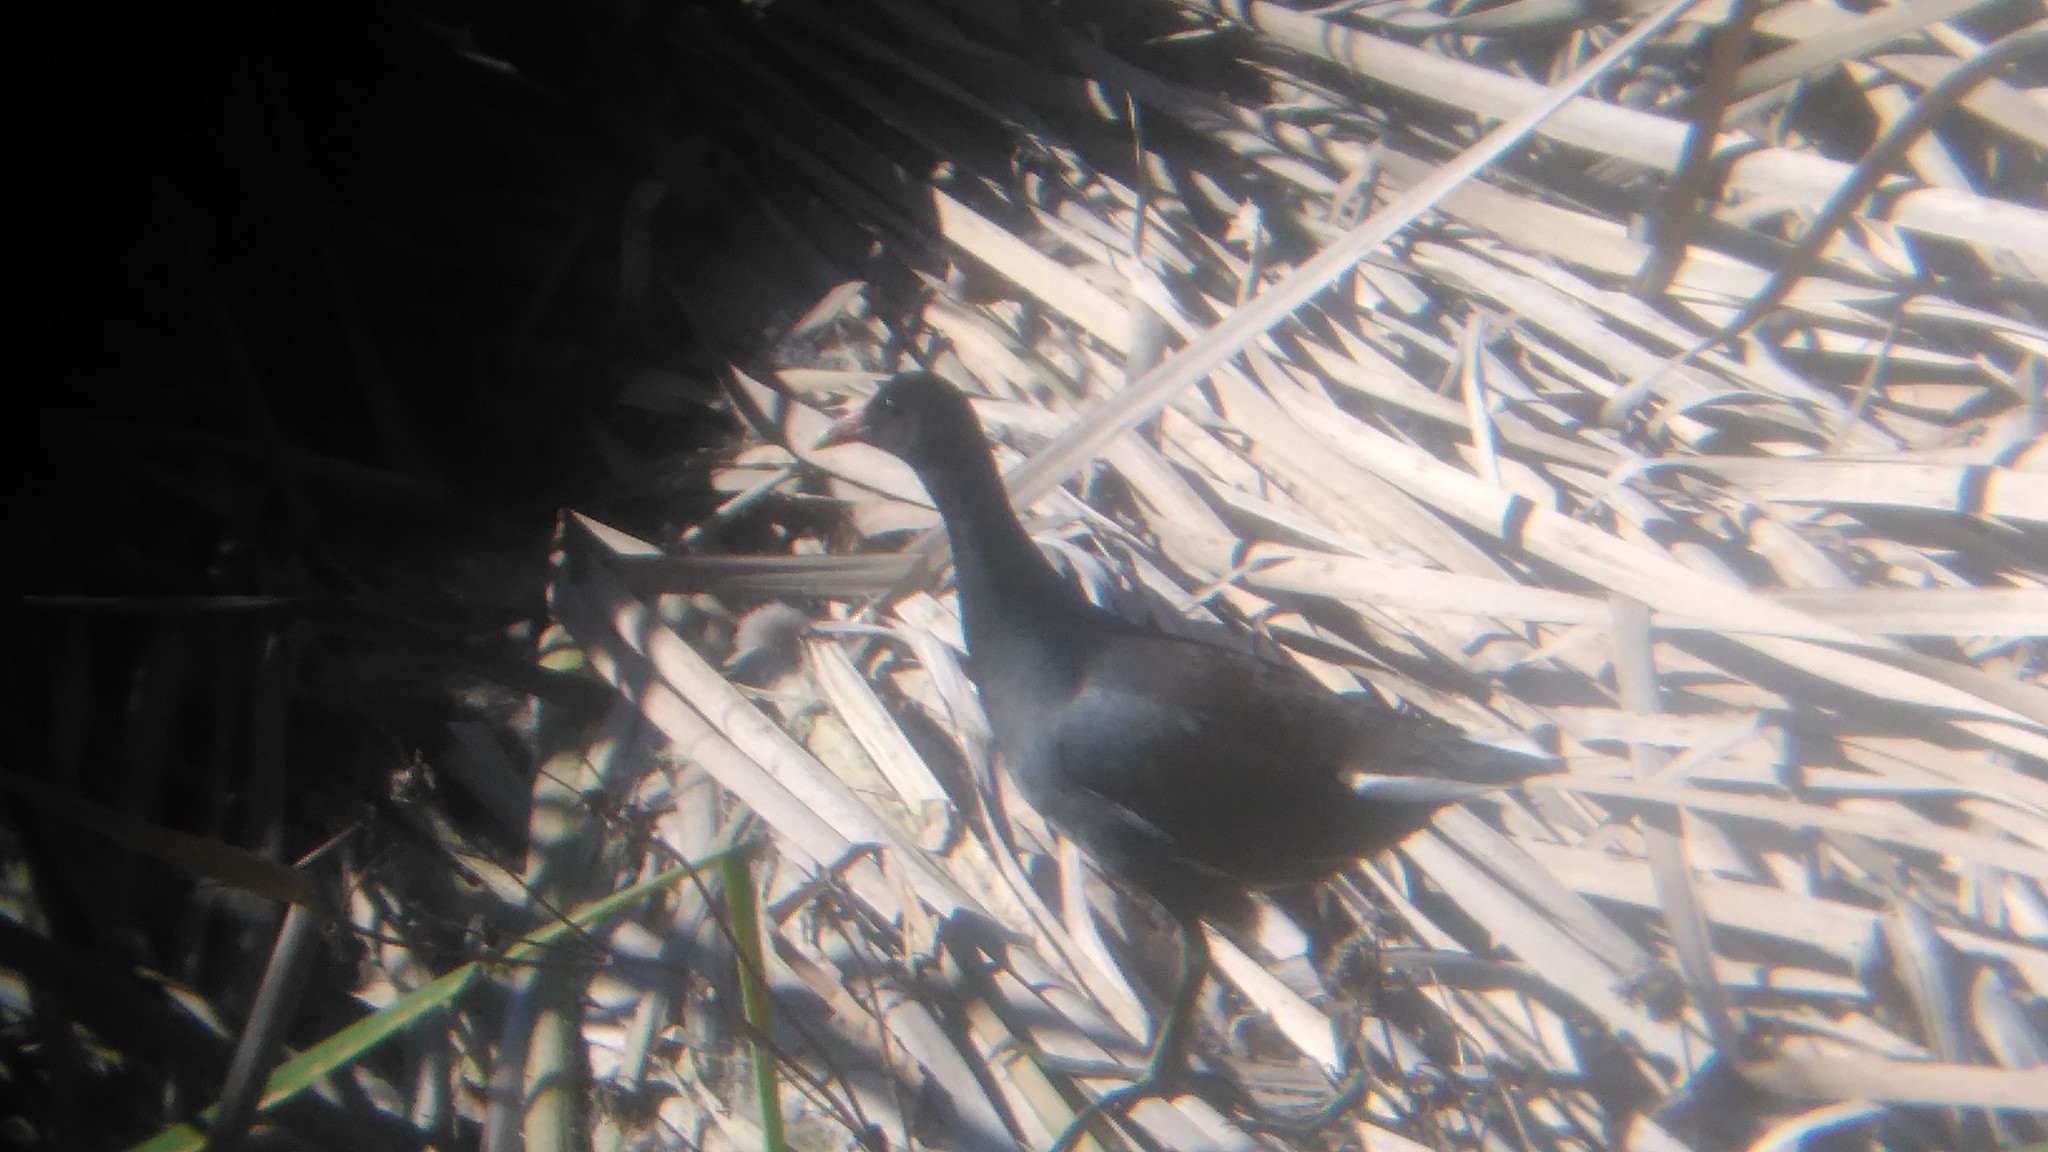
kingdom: Animalia
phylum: Chordata
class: Aves
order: Gruiformes
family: Rallidae
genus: Gallinula
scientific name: Gallinula chloropus
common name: Common moorhen
